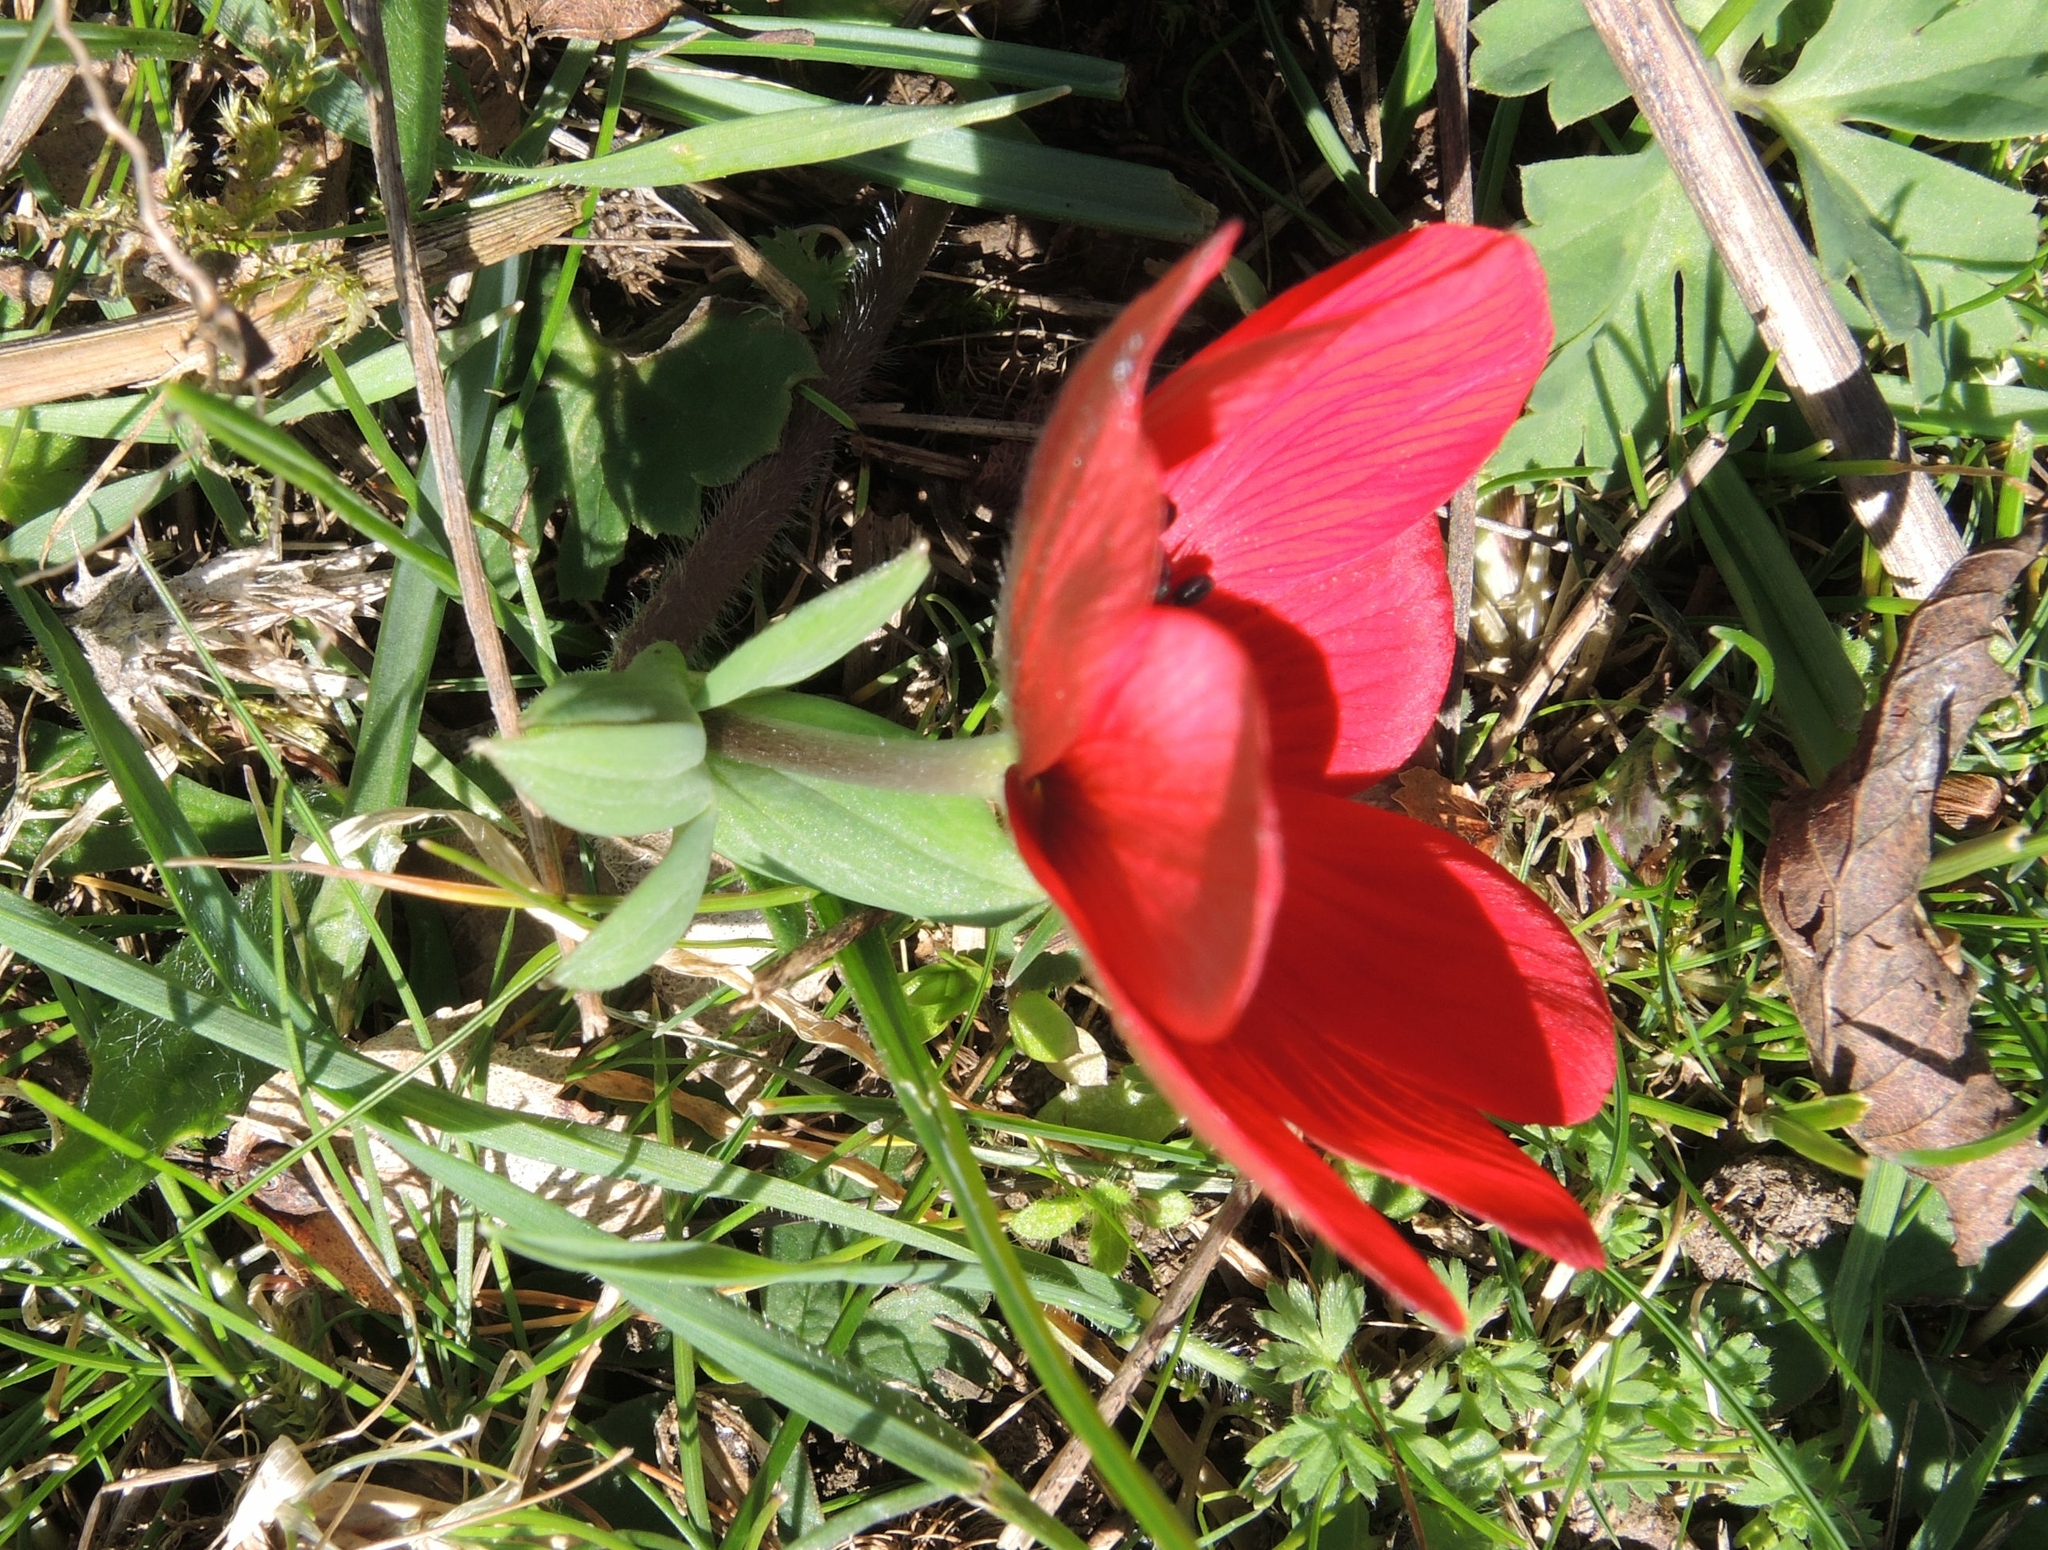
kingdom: Plantae
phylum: Tracheophyta
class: Magnoliopsida
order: Ranunculales
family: Ranunculaceae
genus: Anemone
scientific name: Anemone pavonina
